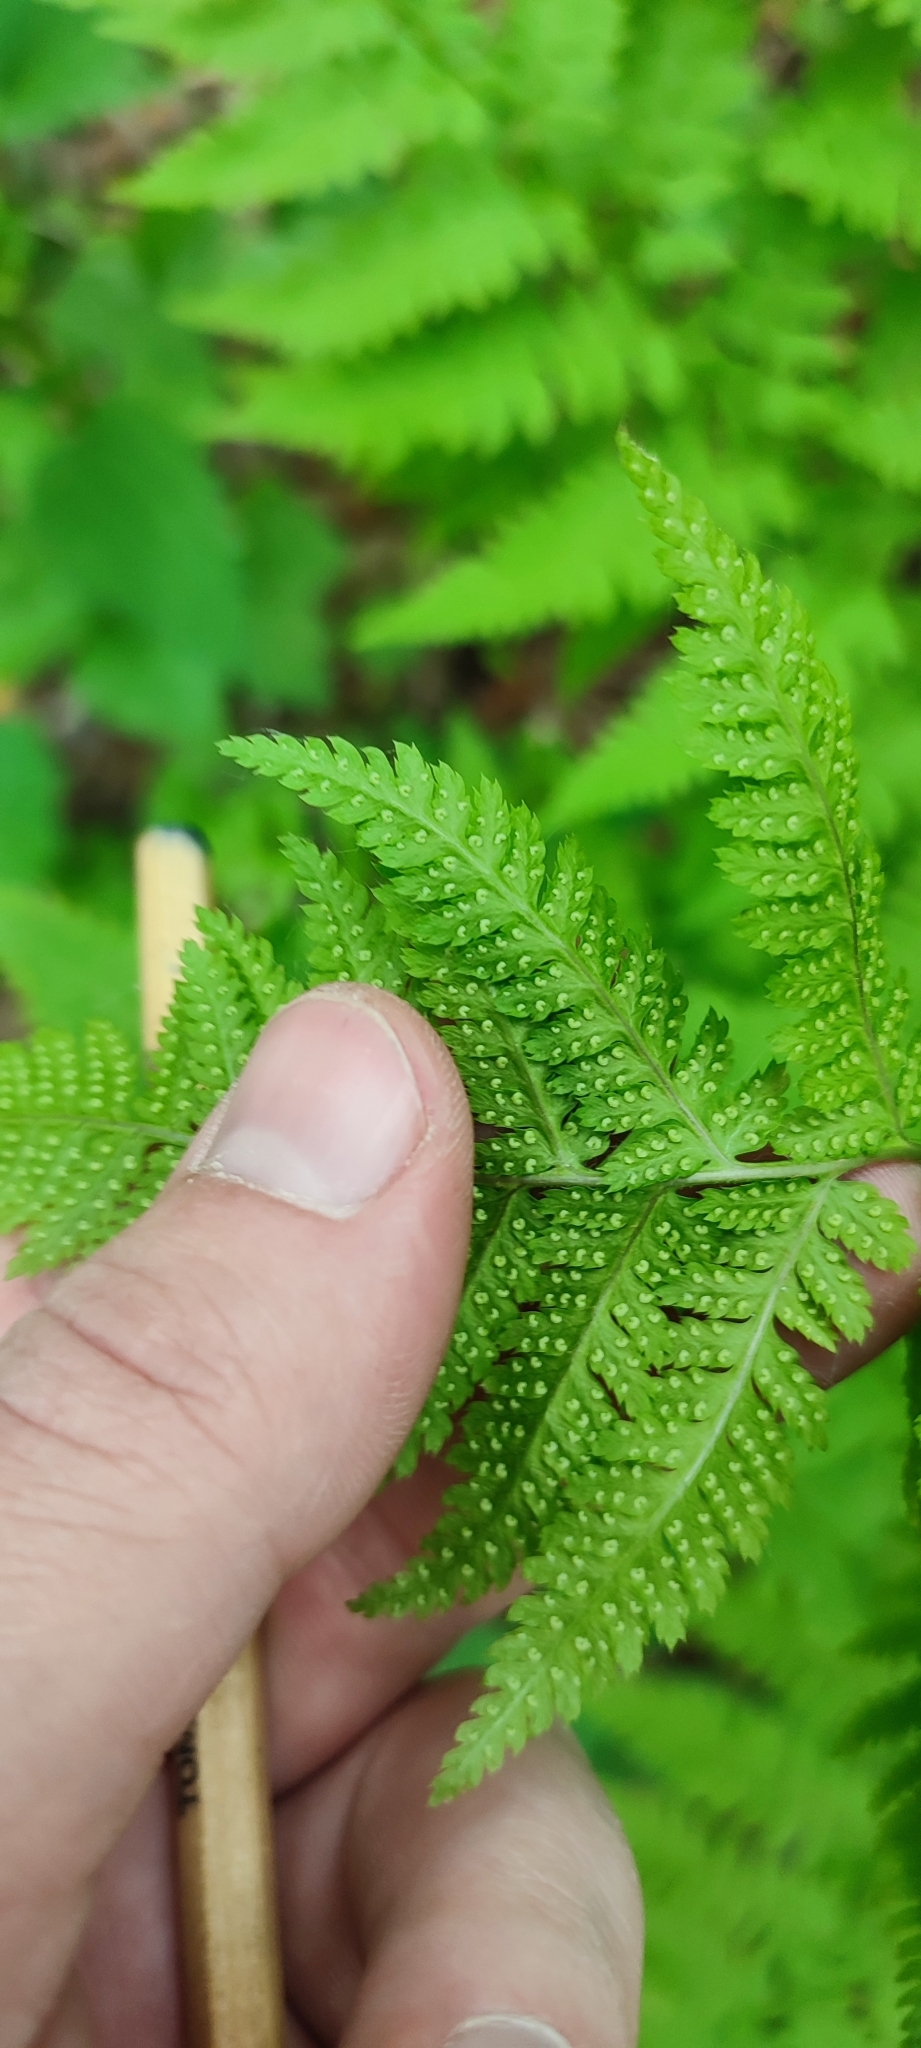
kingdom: Plantae
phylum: Tracheophyta
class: Polypodiopsida
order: Polypodiales
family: Dryopteridaceae
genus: Dryopteris
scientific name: Dryopteris carthusiana
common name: Narrow buckler-fern
